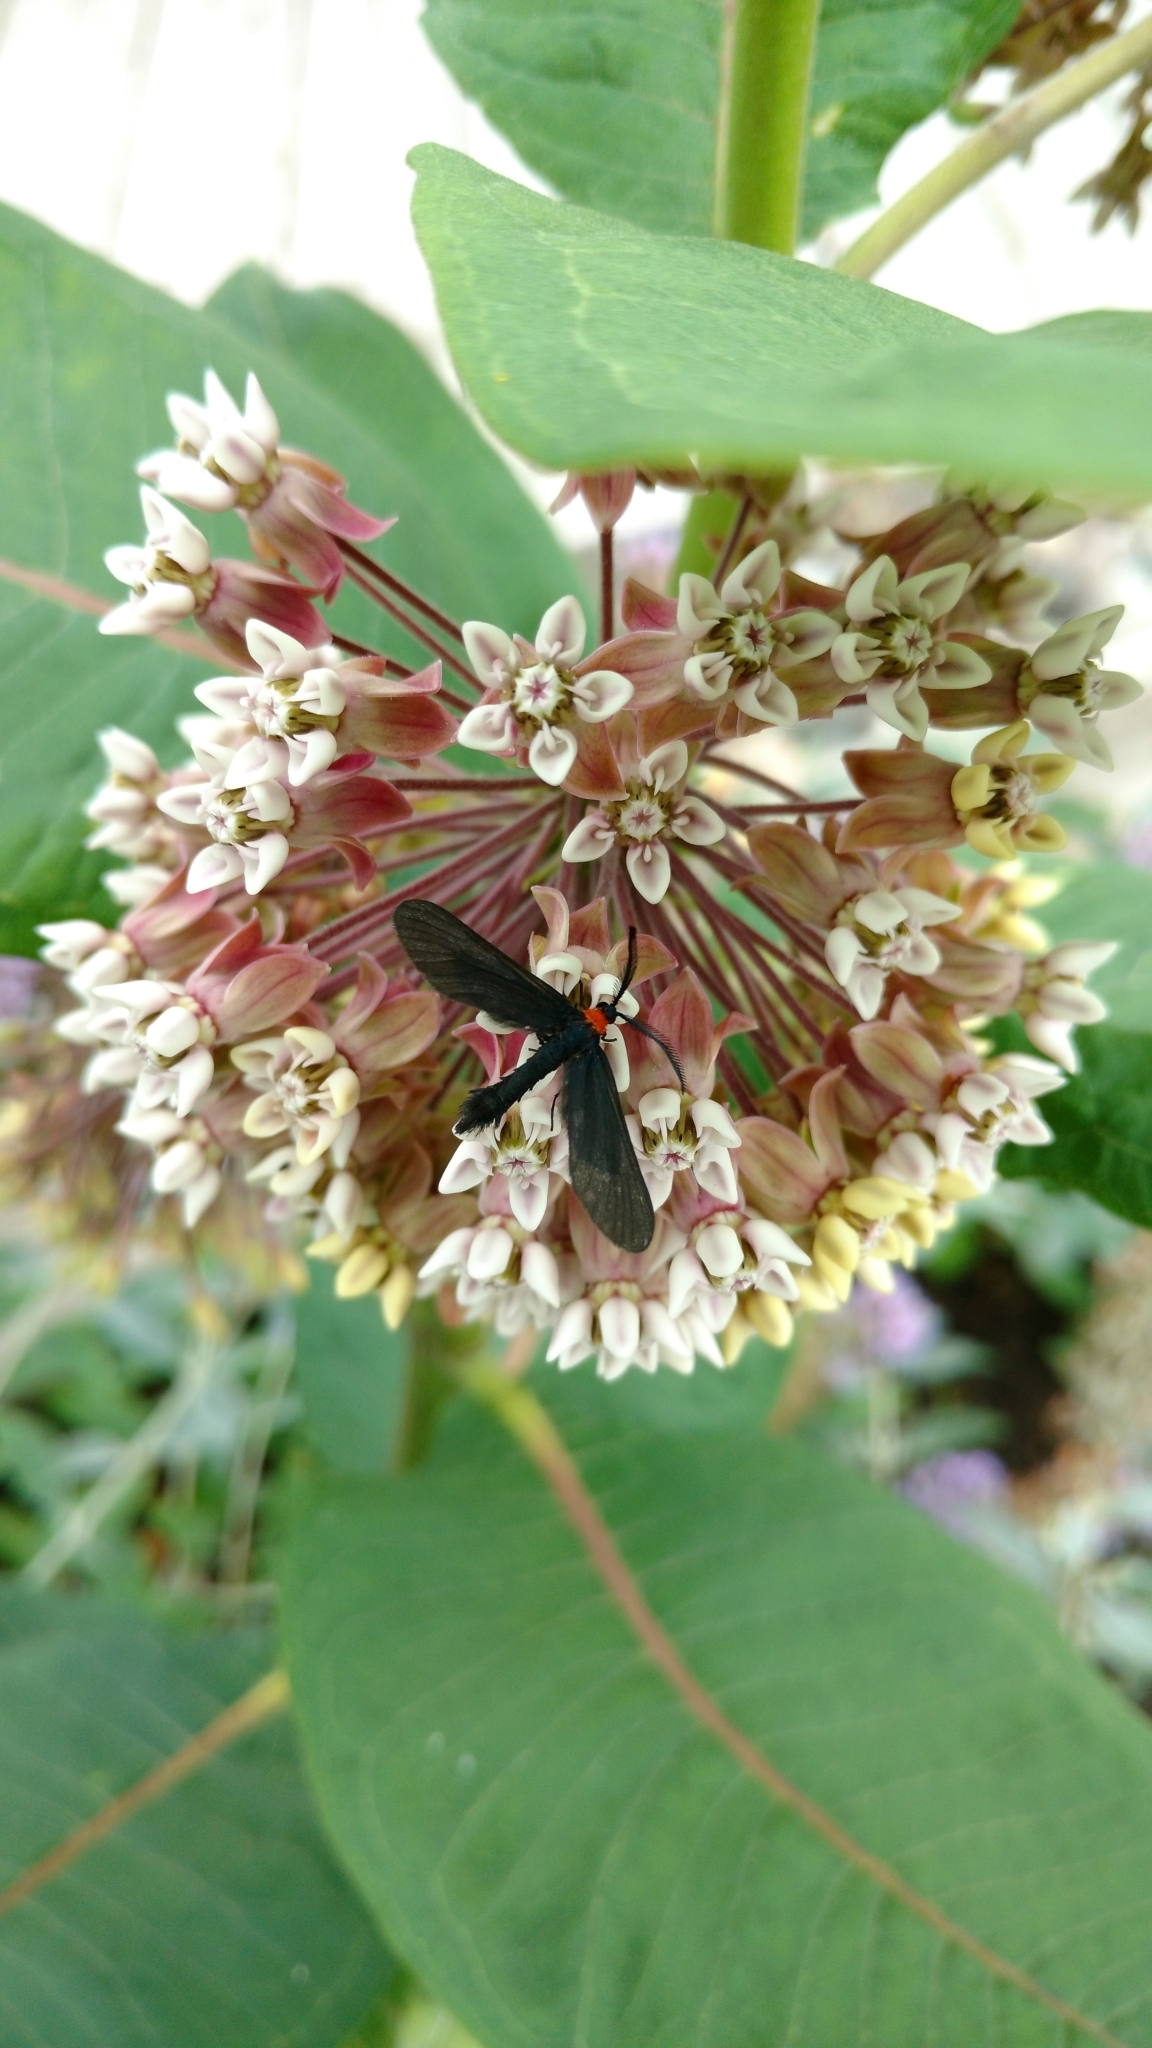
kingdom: Animalia
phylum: Arthropoda
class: Insecta
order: Lepidoptera
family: Zygaenidae
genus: Harrisina
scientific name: Harrisina americana
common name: Grapeleaf skeletonizer moth
